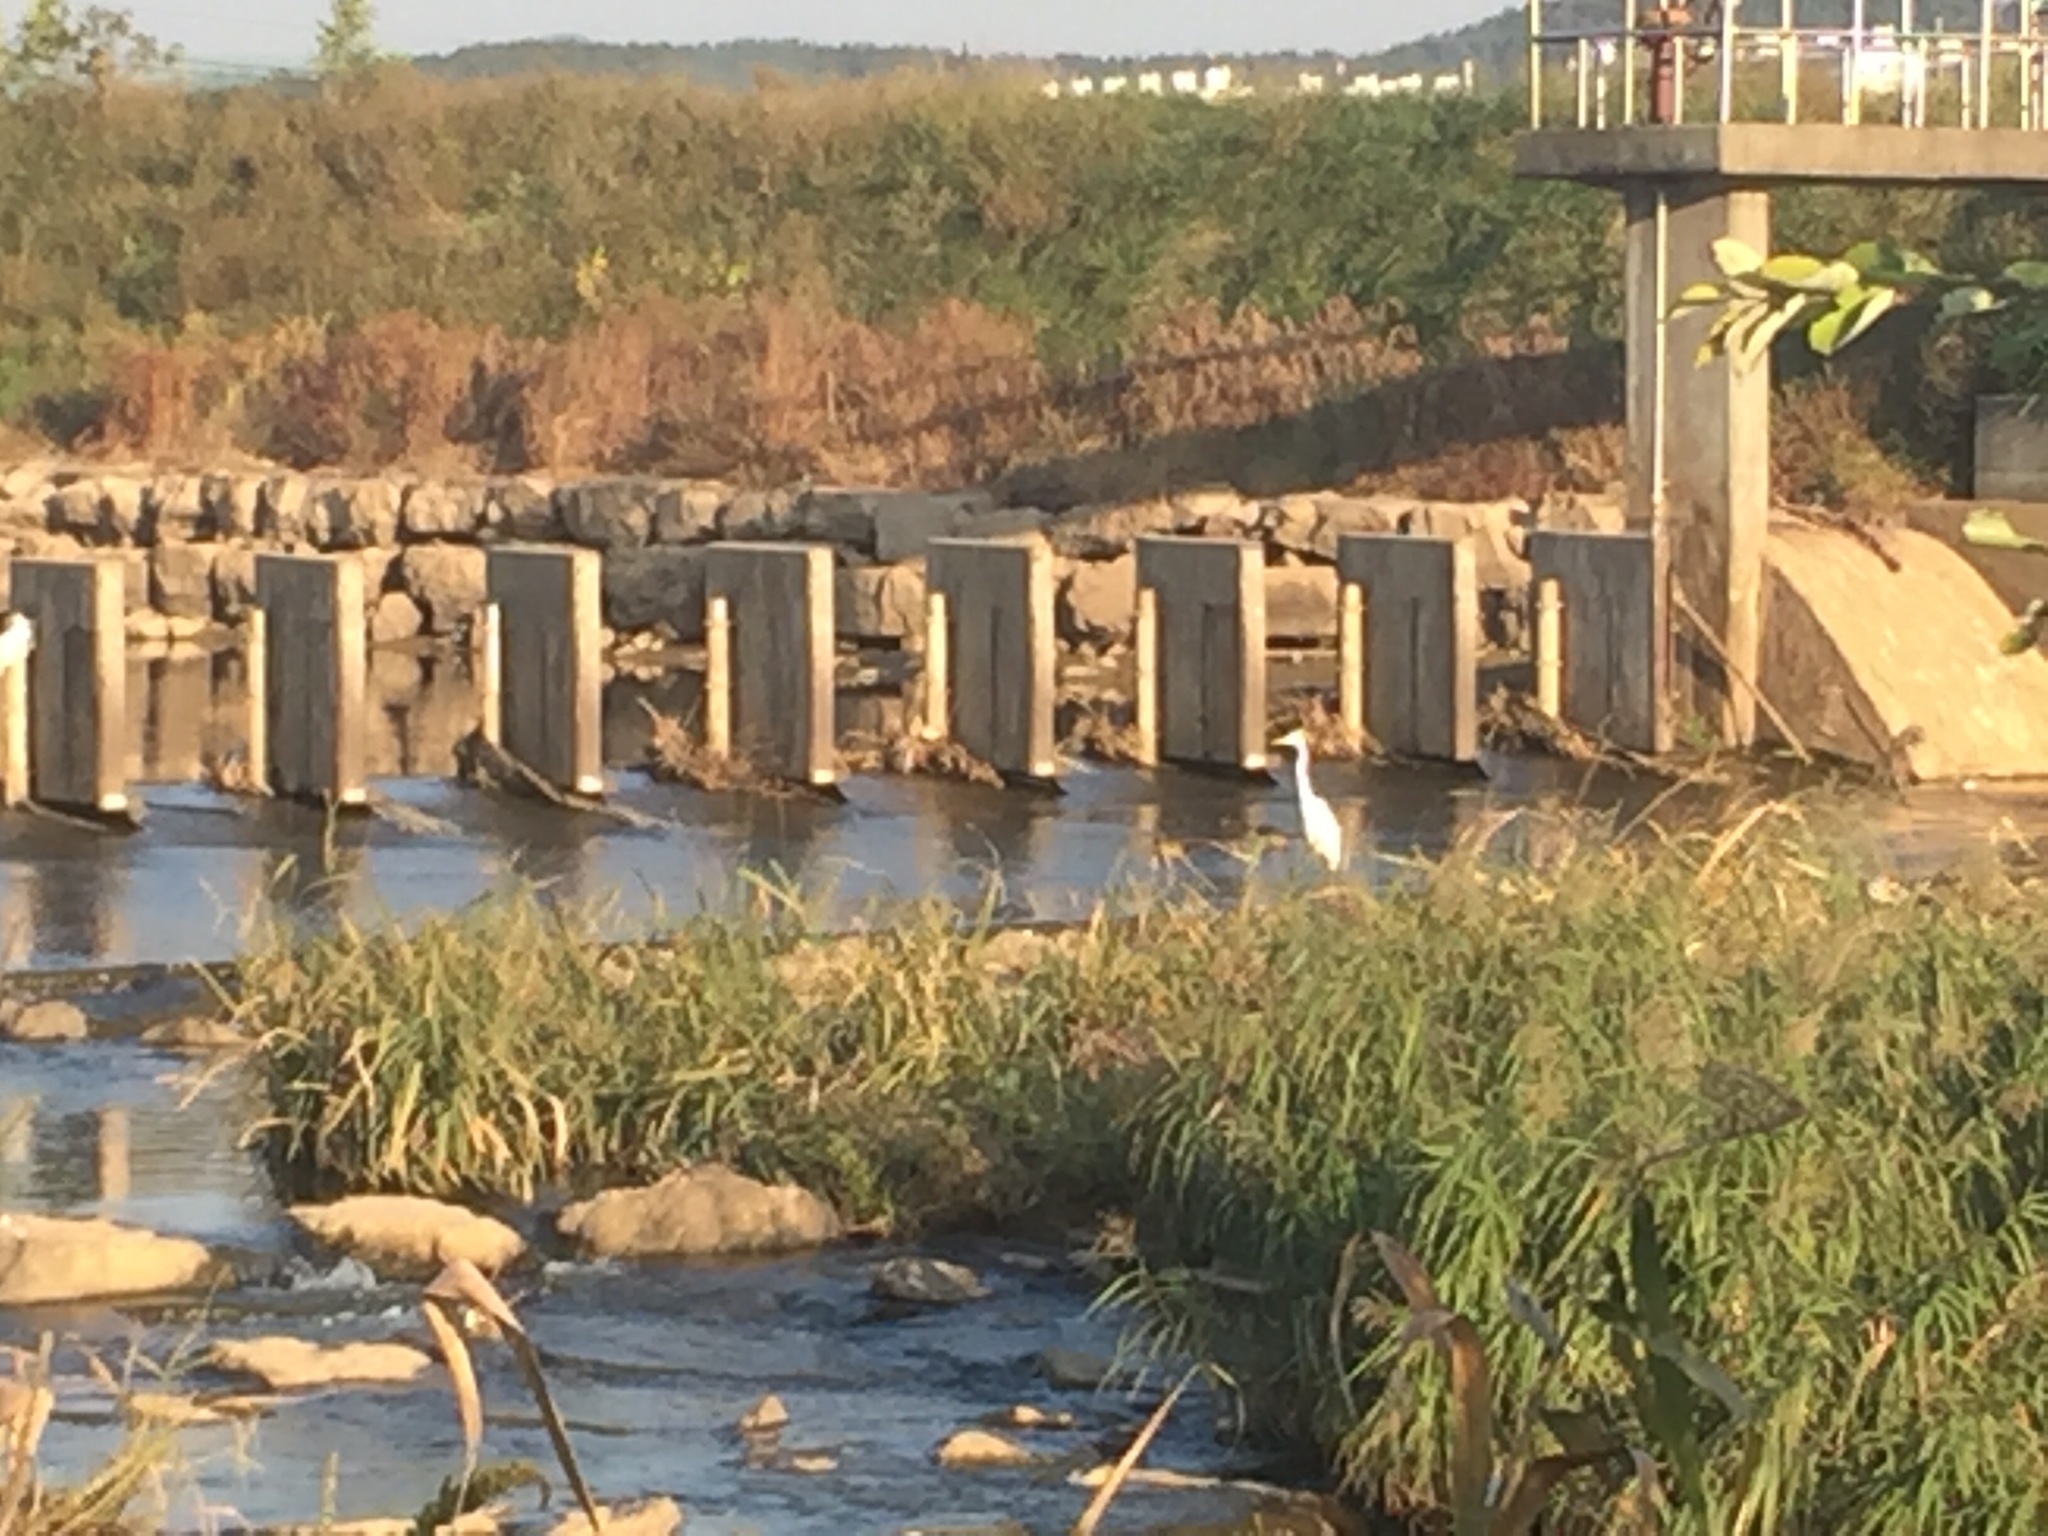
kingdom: Animalia
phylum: Chordata
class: Aves
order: Pelecaniformes
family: Ardeidae
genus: Ardea
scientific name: Ardea alba
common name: Great egret
